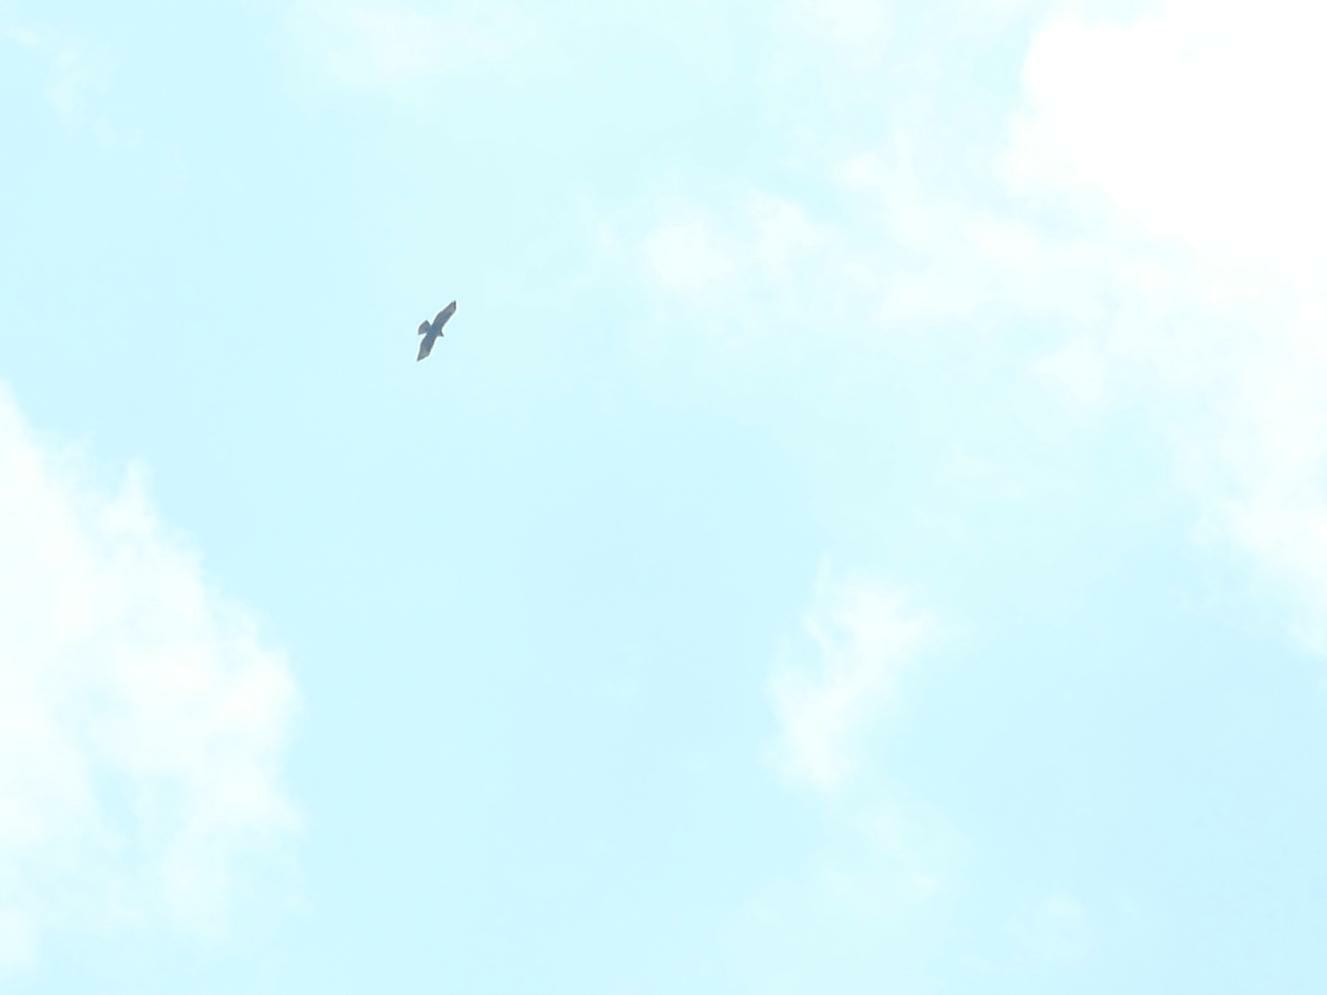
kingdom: Animalia
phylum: Chordata
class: Aves
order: Accipitriformes
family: Accipitridae
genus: Buteo
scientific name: Buteo buteo
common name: Common buzzard
